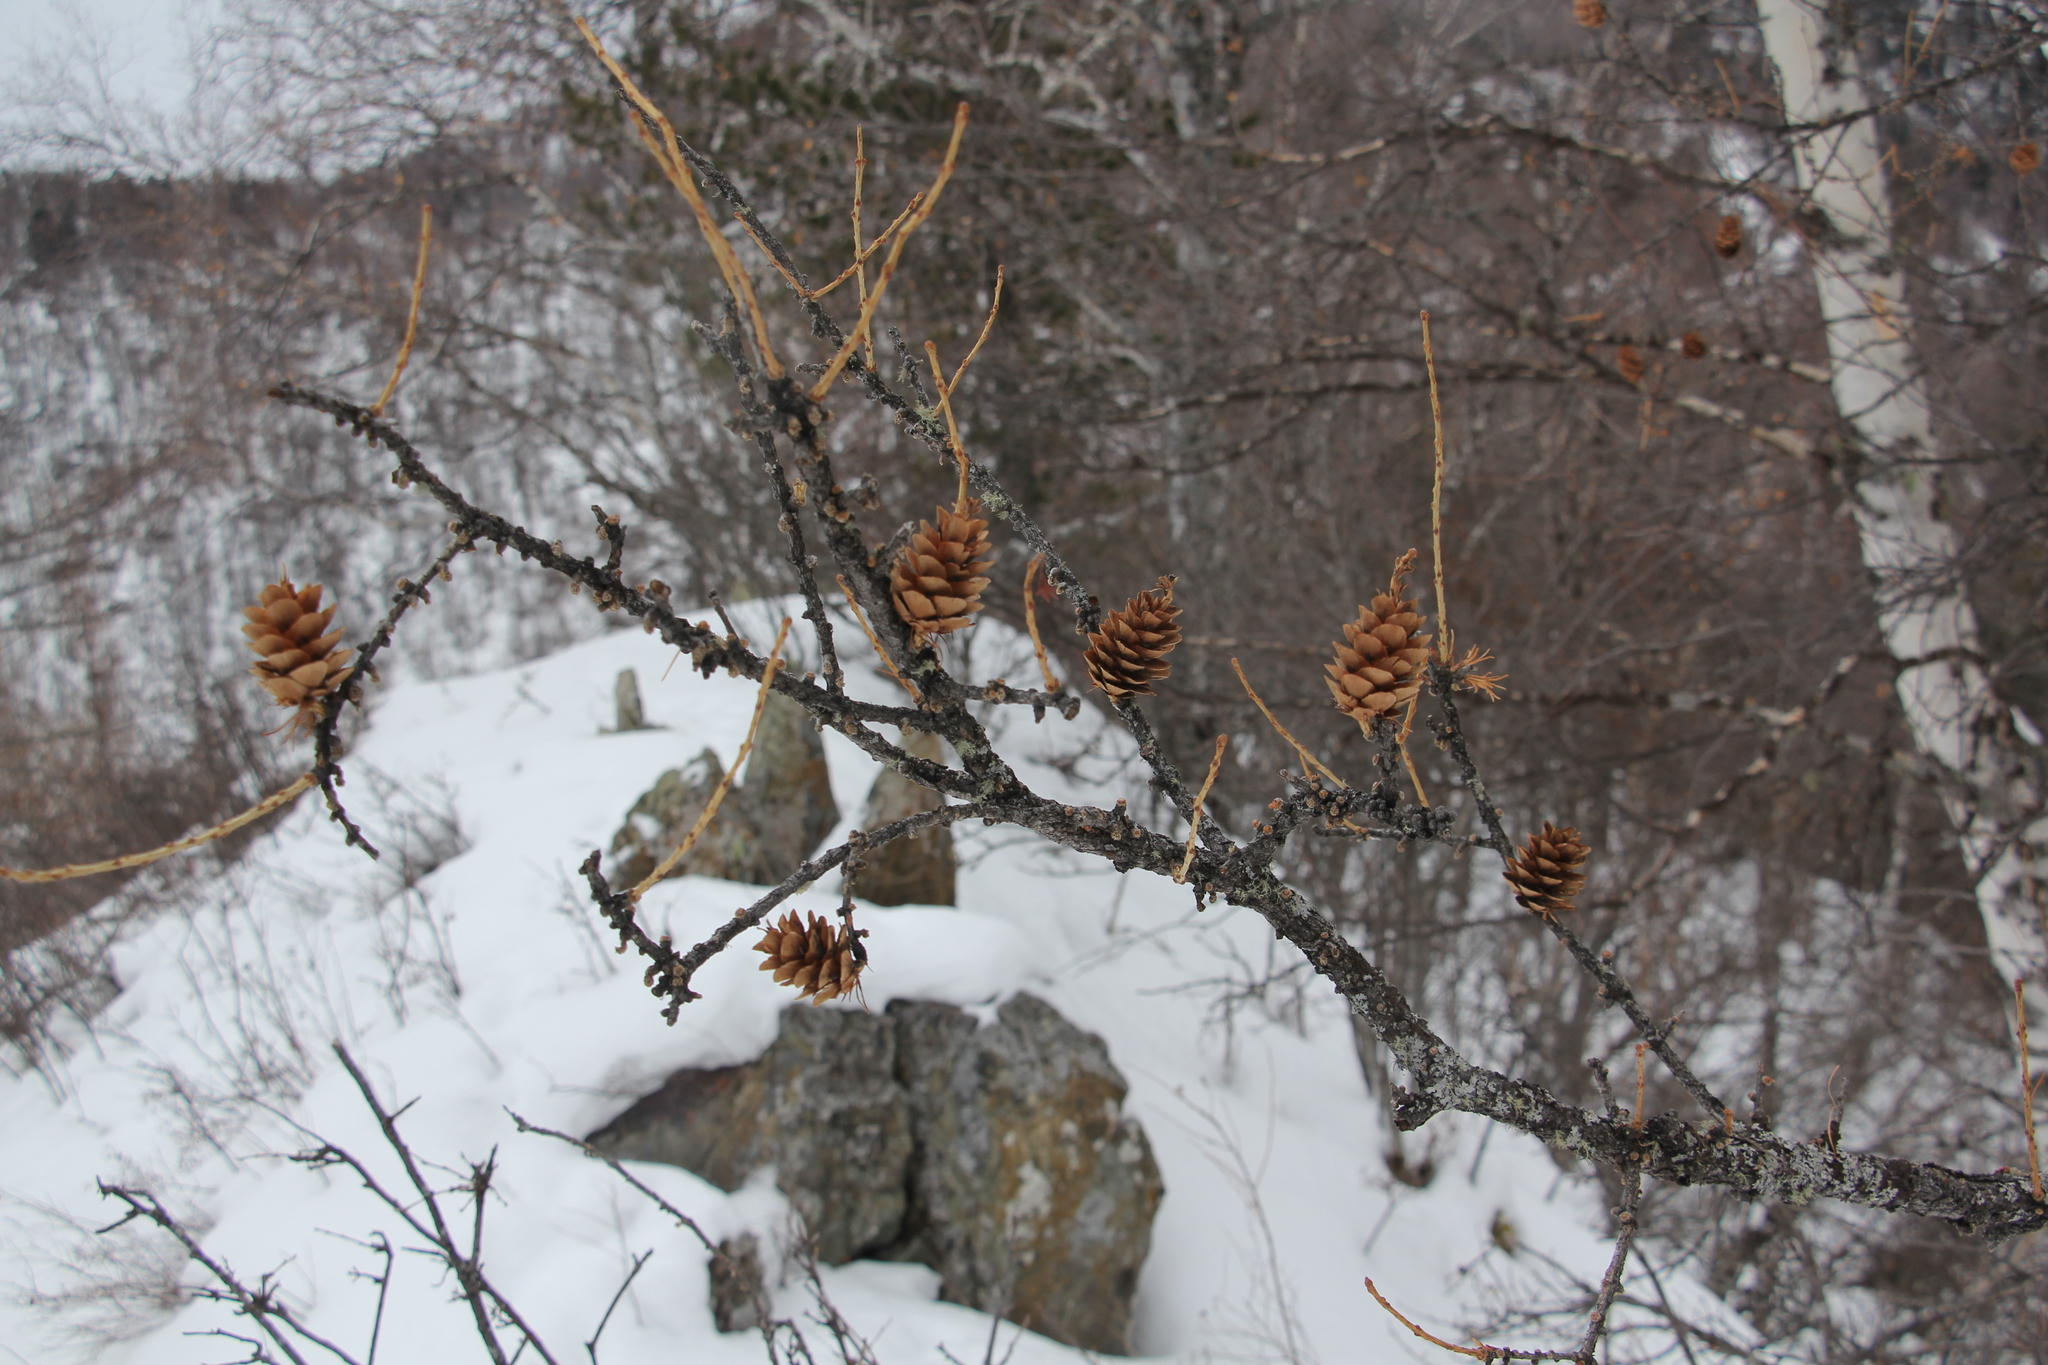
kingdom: Plantae
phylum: Tracheophyta
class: Pinopsida
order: Pinales
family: Pinaceae
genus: Larix
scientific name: Larix sibirica
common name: Siberian larch
